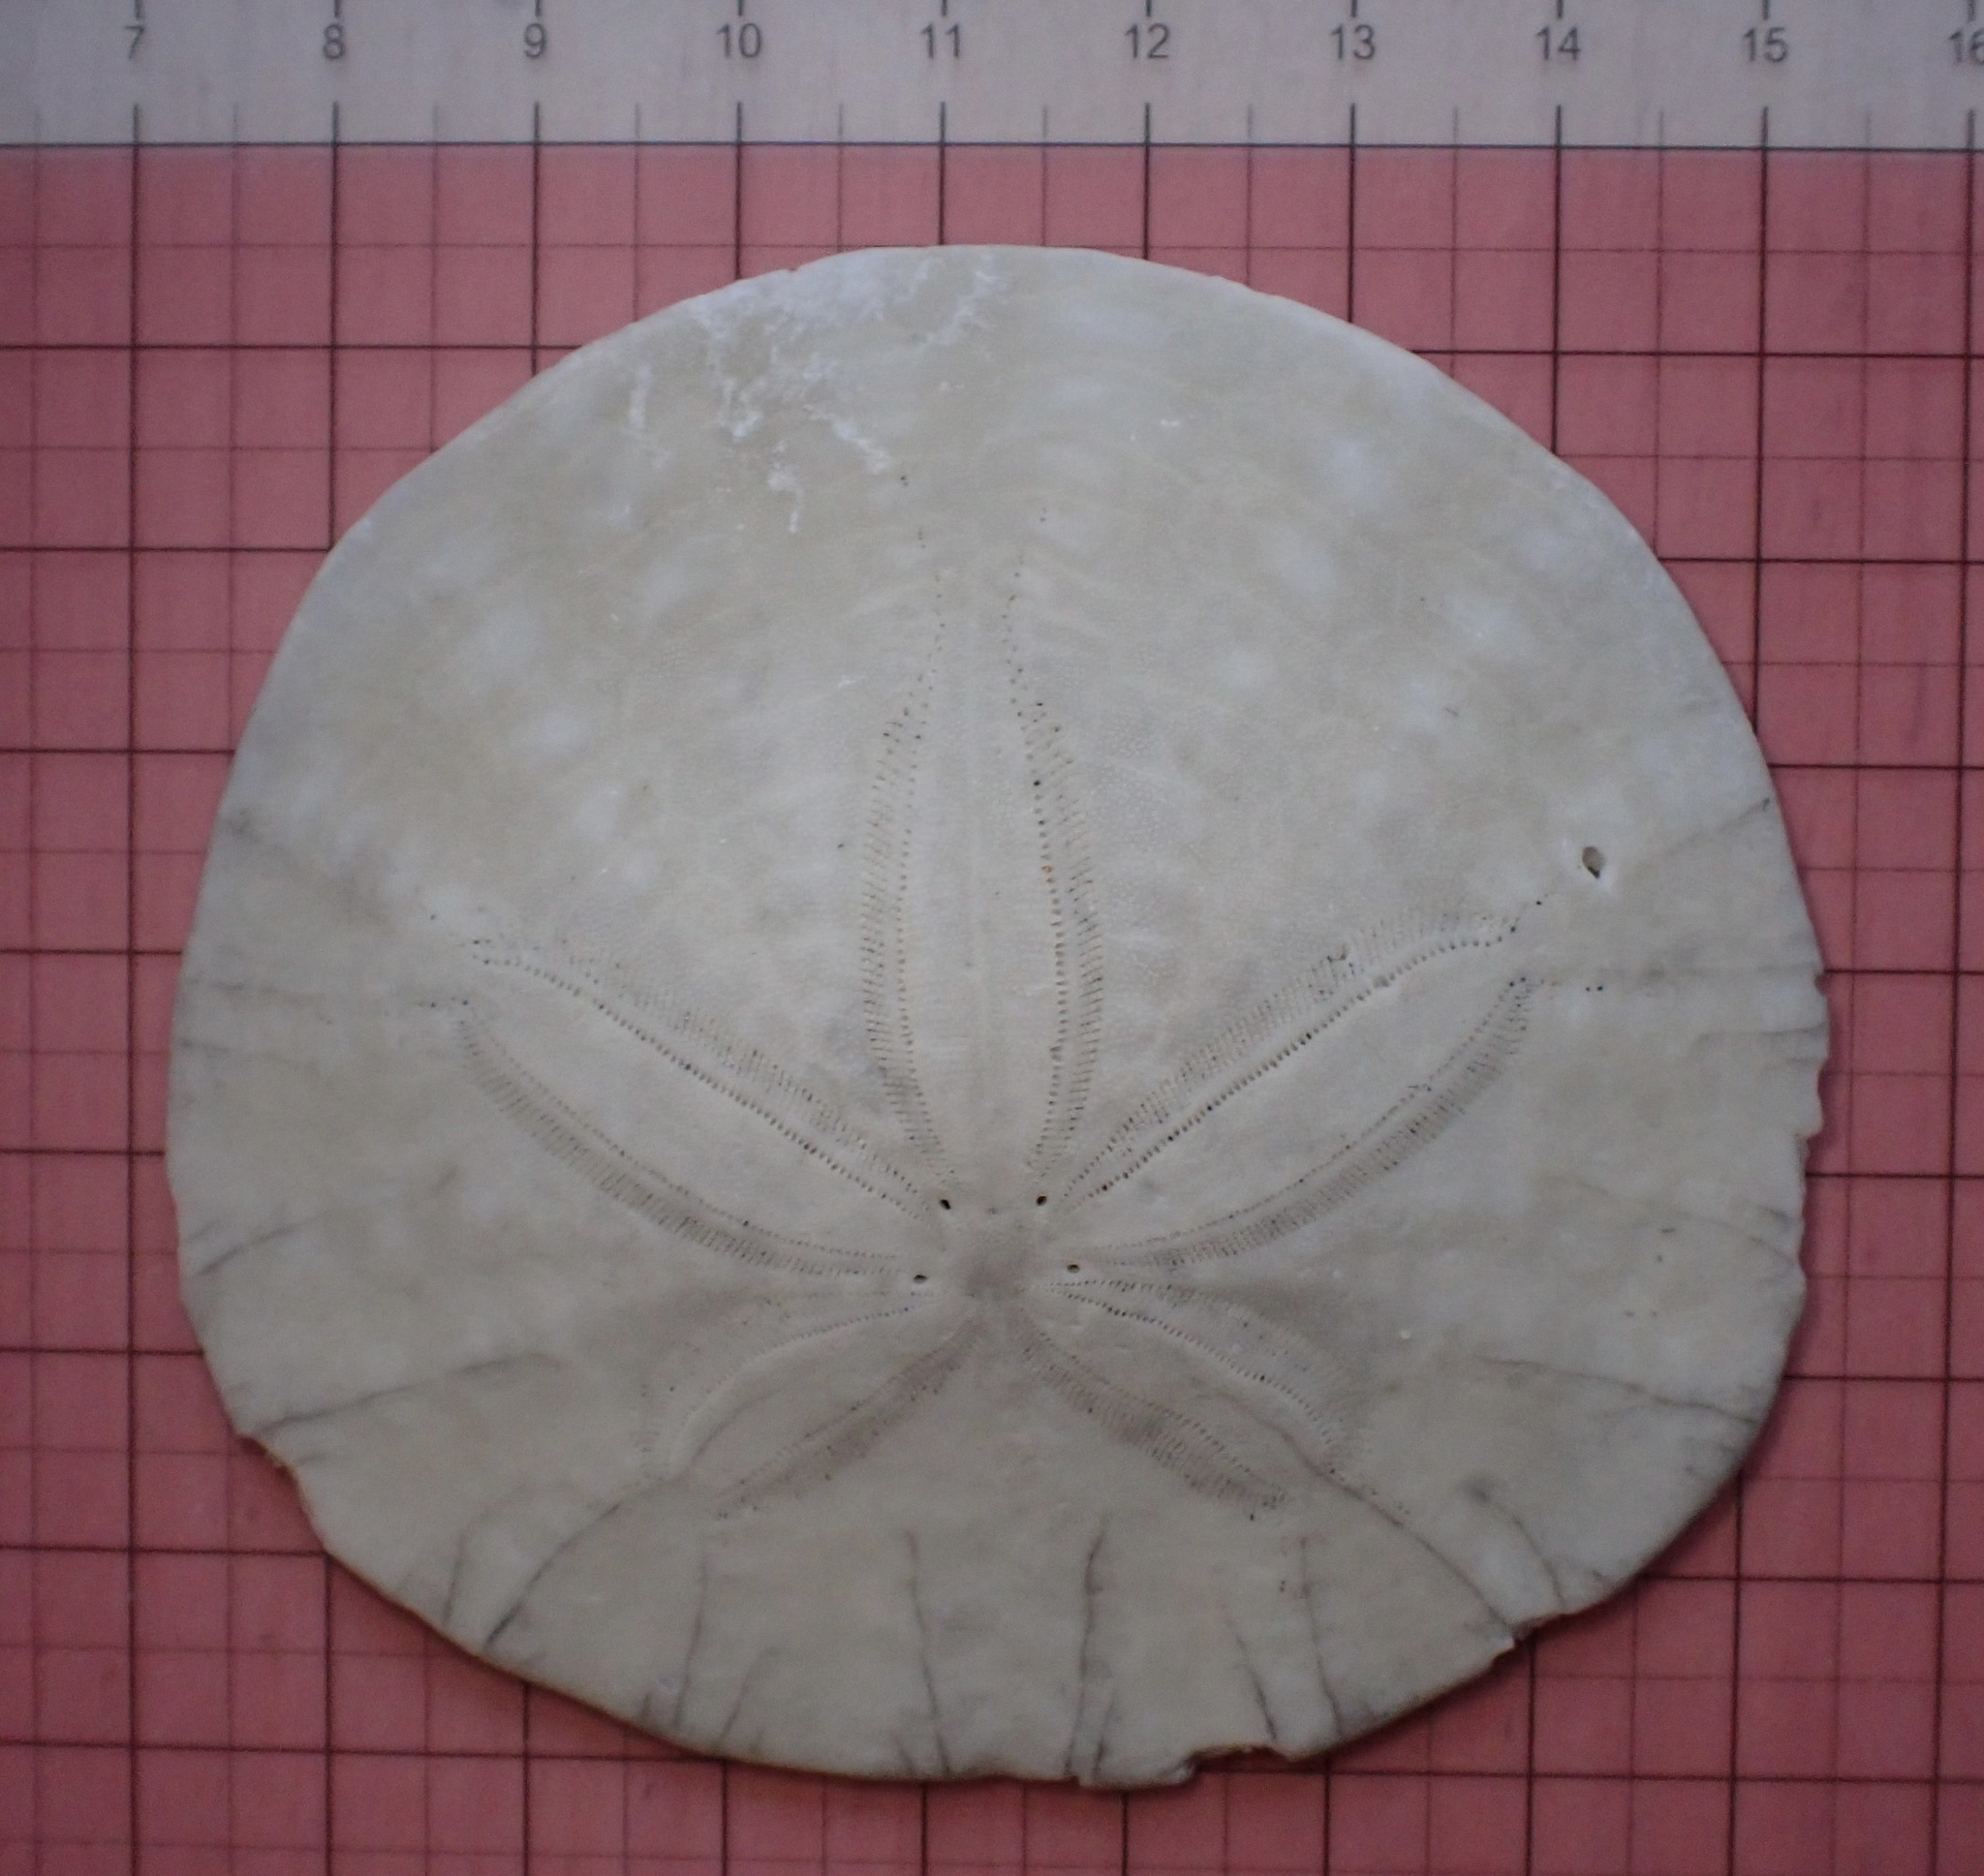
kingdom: Animalia
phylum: Echinodermata
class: Echinoidea
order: Echinolampadacea
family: Dendrasteridae
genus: Dendraster
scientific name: Dendraster excentricus
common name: Eccentric sand dollar sea urchin
